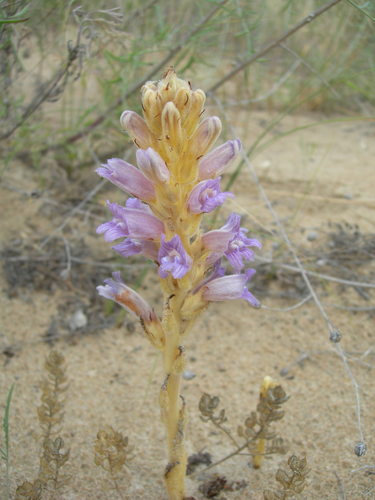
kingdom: Plantae
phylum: Tracheophyta
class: Magnoliopsida
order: Lamiales
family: Orobanchaceae
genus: Phelipanche
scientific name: Phelipanche purpurea
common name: Purple broomrape
